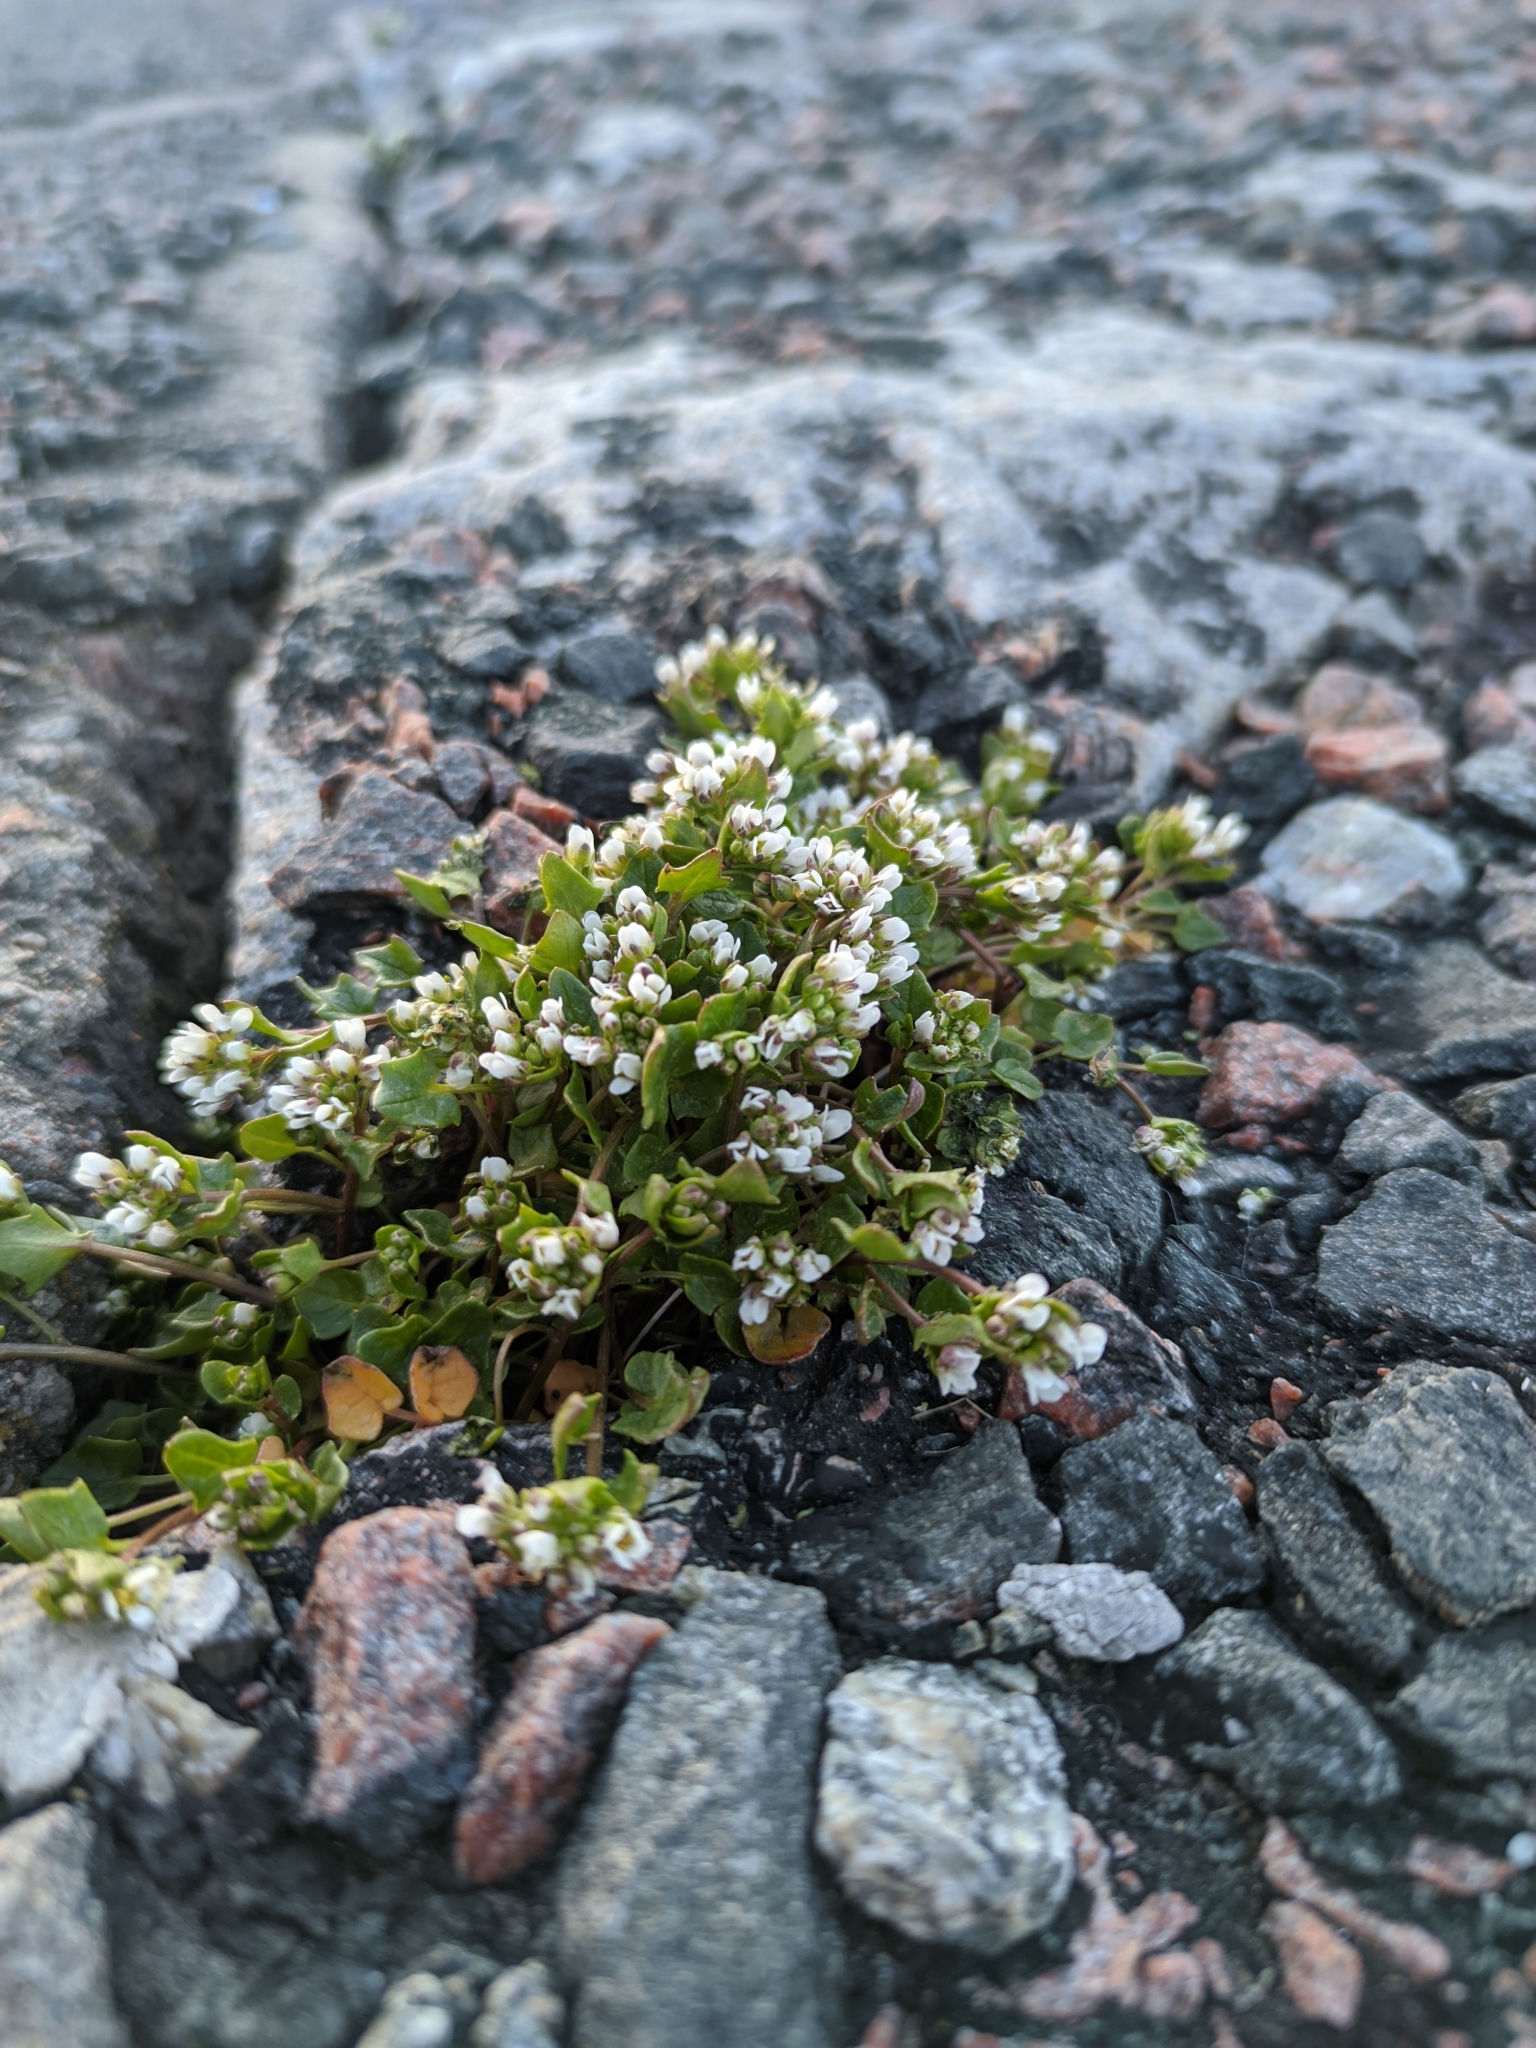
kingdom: Plantae
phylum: Tracheophyta
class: Magnoliopsida
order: Brassicales
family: Brassicaceae
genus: Cochlearia
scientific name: Cochlearia danica
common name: Early scurvygrass
